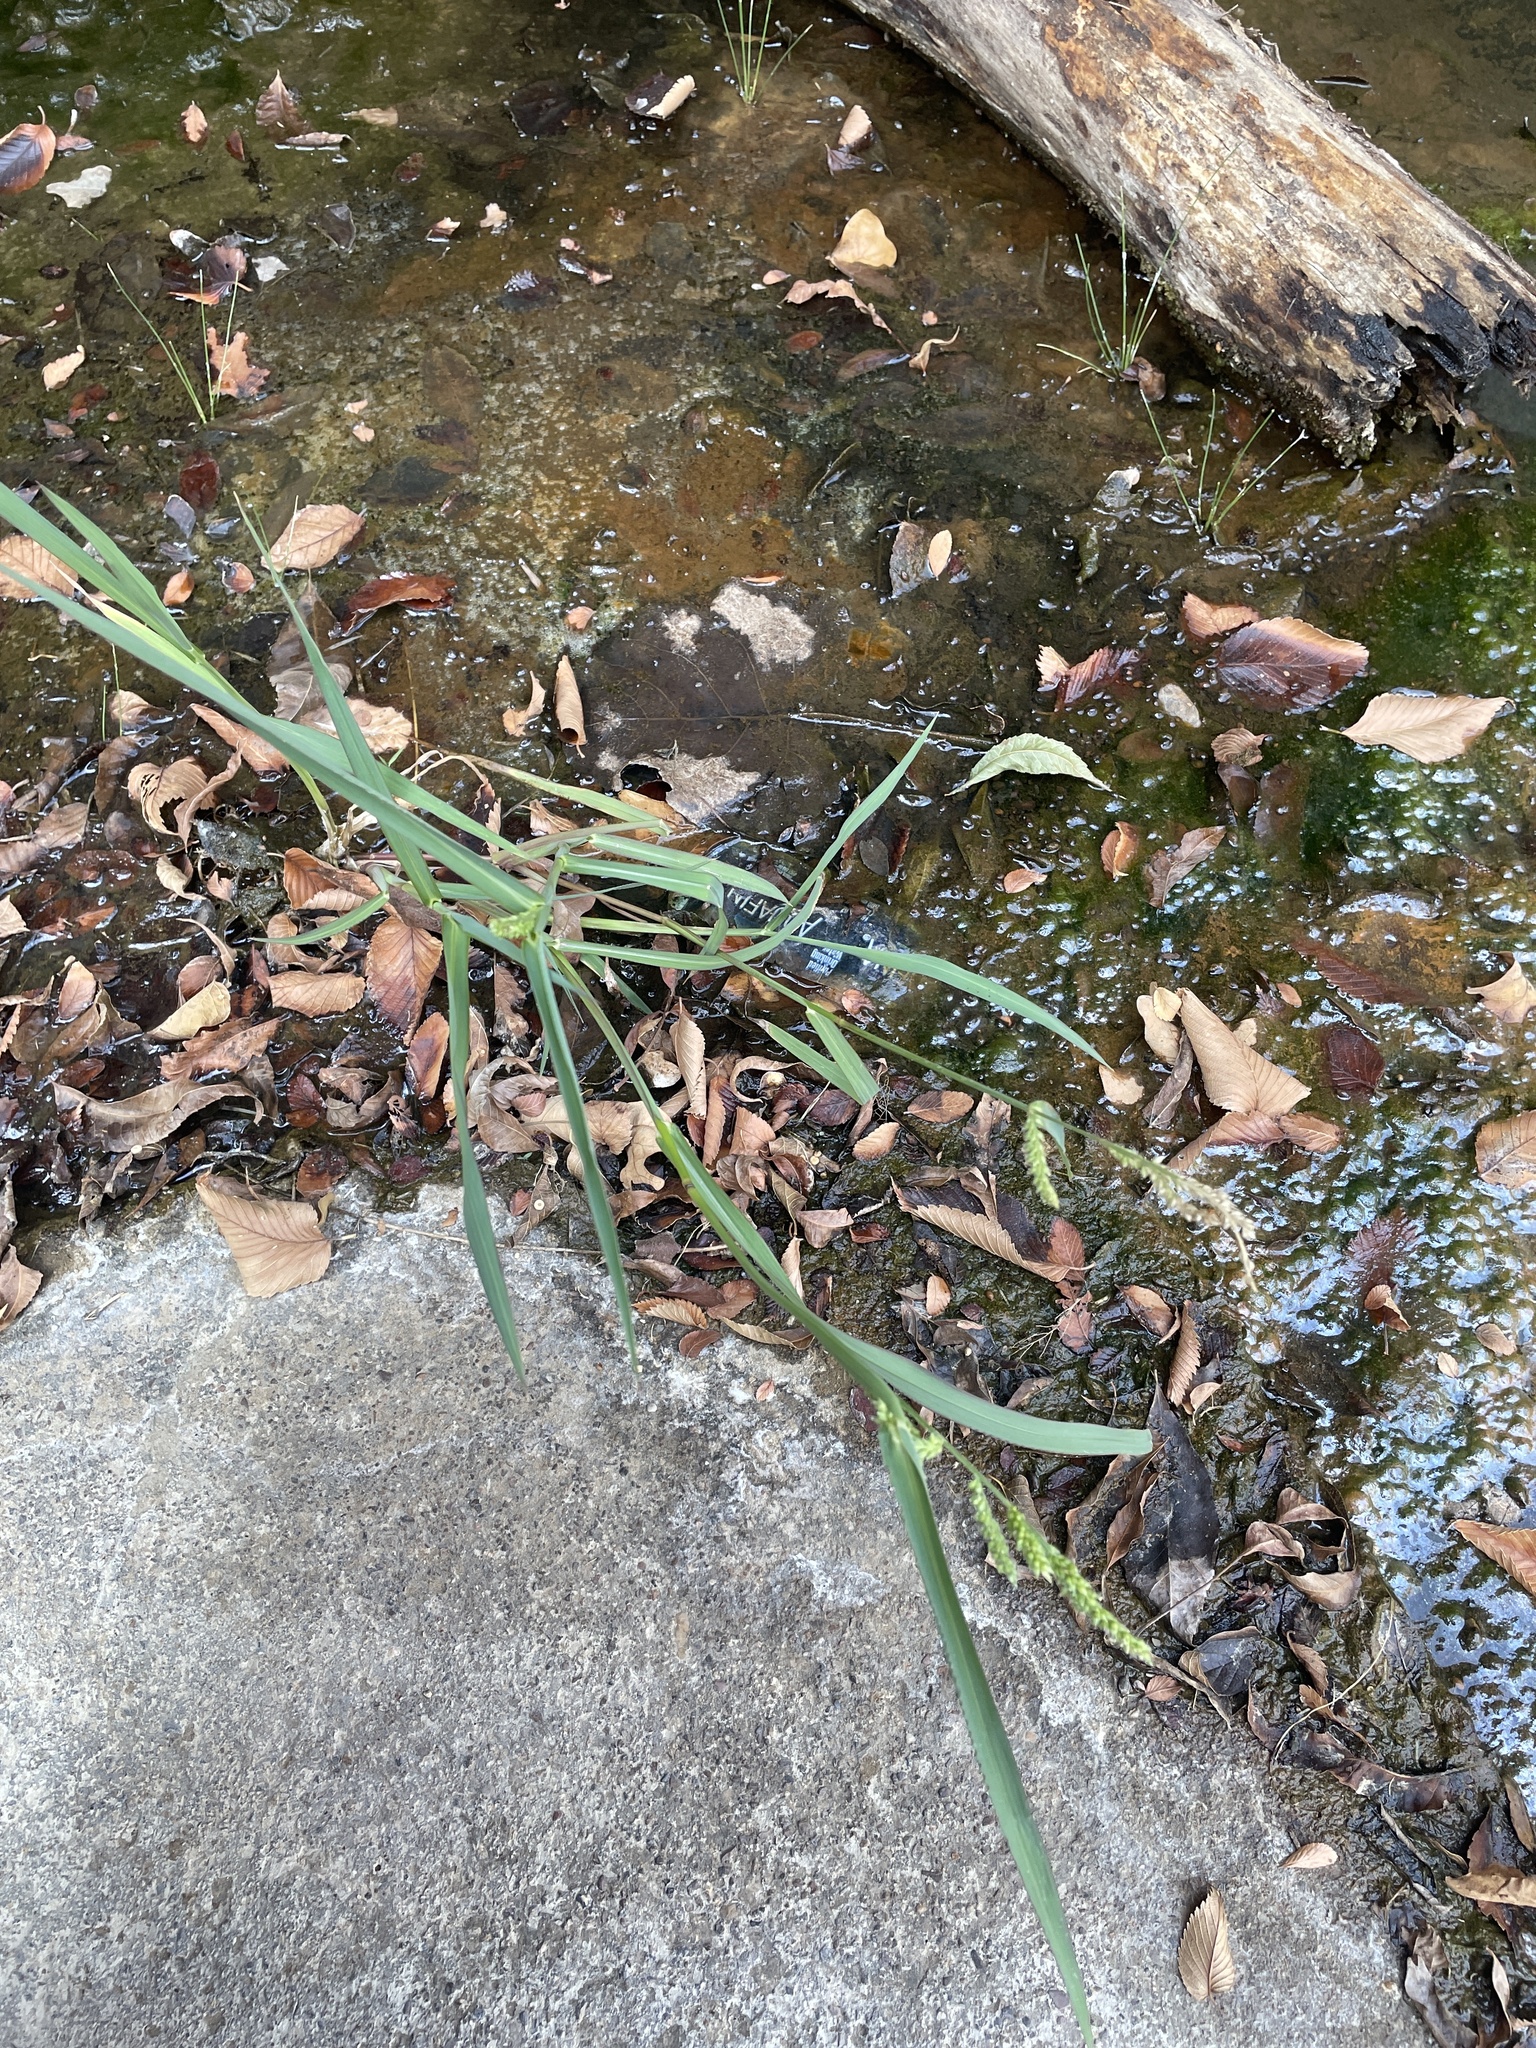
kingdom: Plantae
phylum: Tracheophyta
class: Liliopsida
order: Poales
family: Poaceae
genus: Echinochloa
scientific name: Echinochloa colonum
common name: Jungle rice
